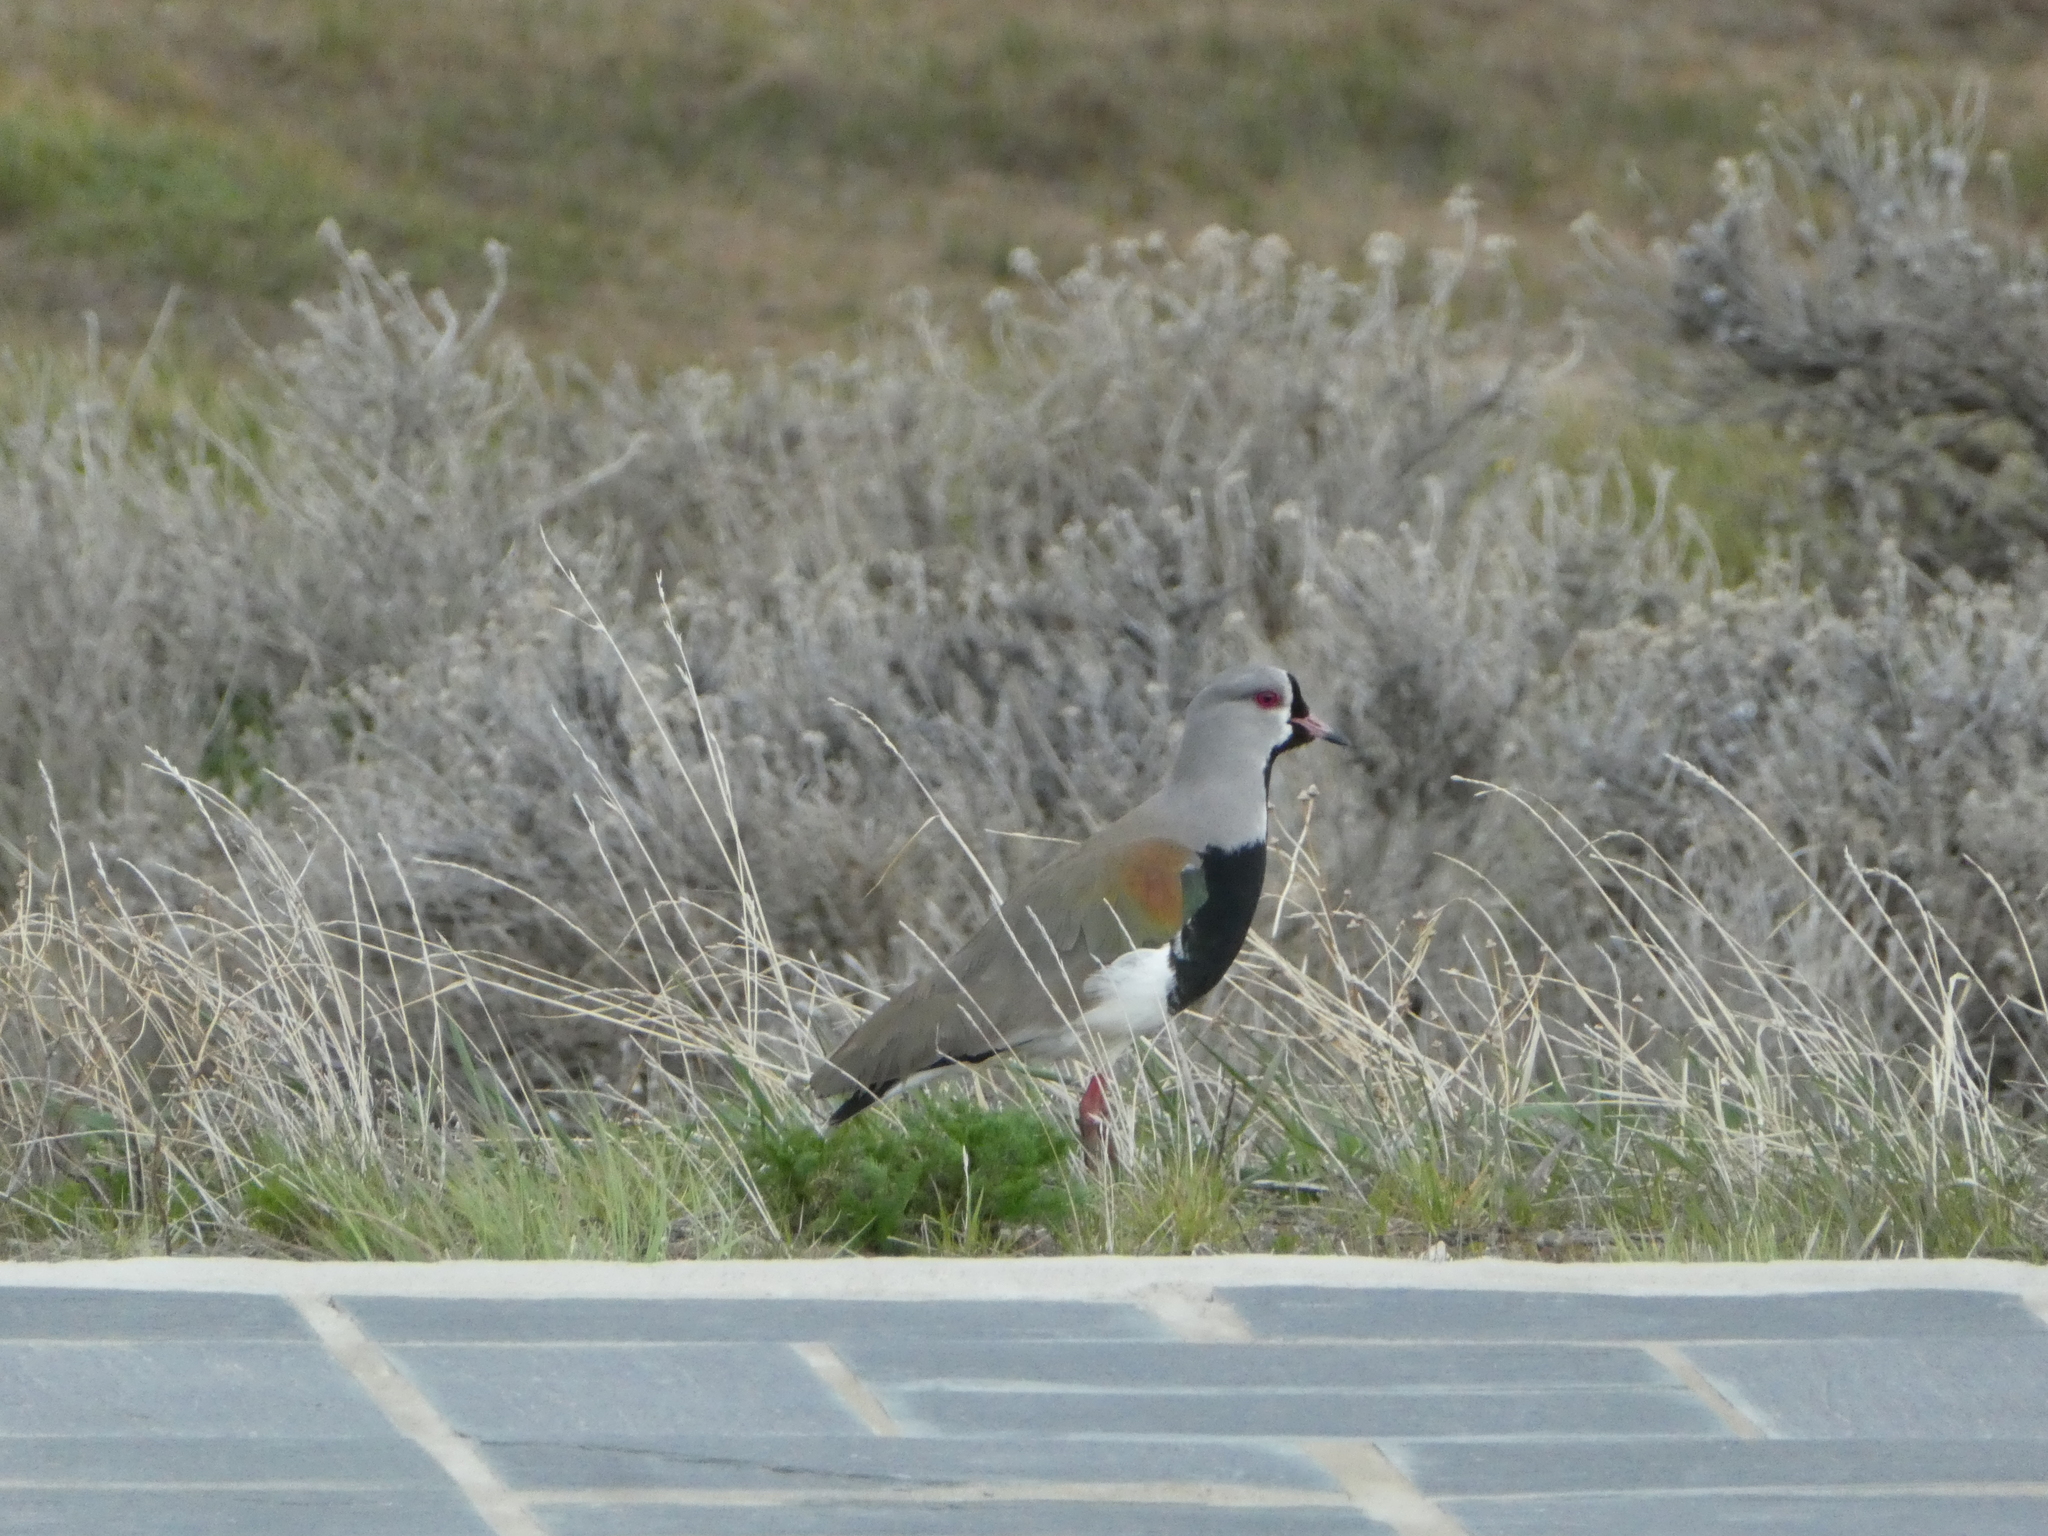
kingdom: Animalia
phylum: Chordata
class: Aves
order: Charadriiformes
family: Charadriidae
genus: Vanellus
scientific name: Vanellus chilensis
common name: Southern lapwing
